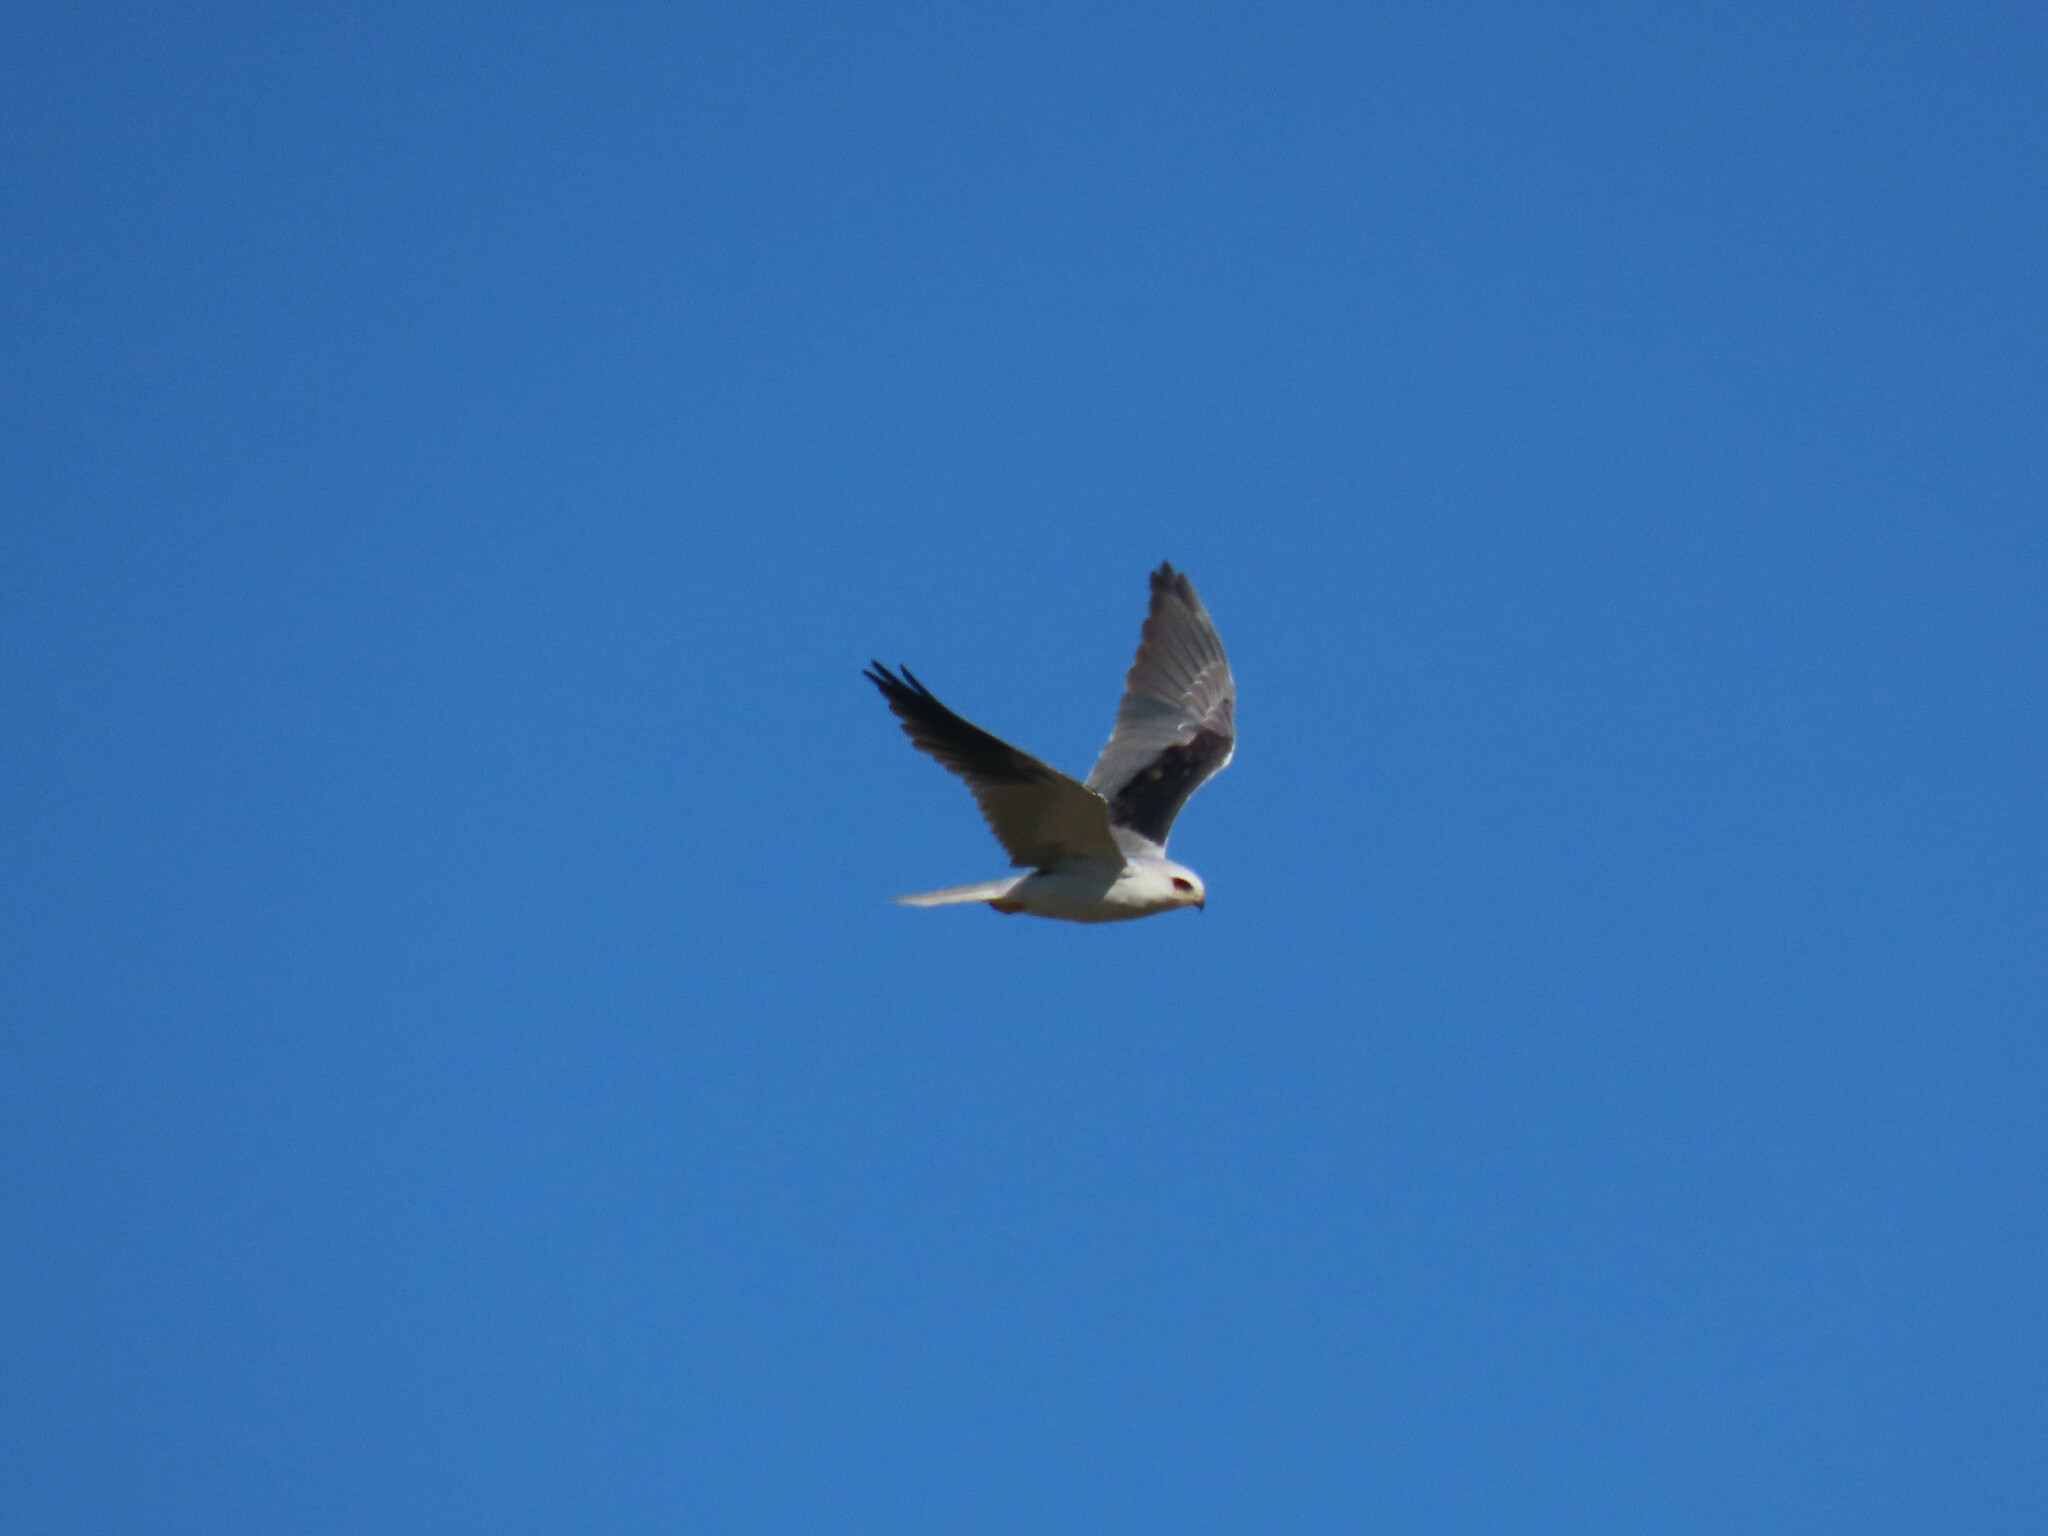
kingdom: Animalia
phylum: Chordata
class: Aves
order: Accipitriformes
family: Accipitridae
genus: Elanus
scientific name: Elanus leucurus
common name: White-tailed kite
